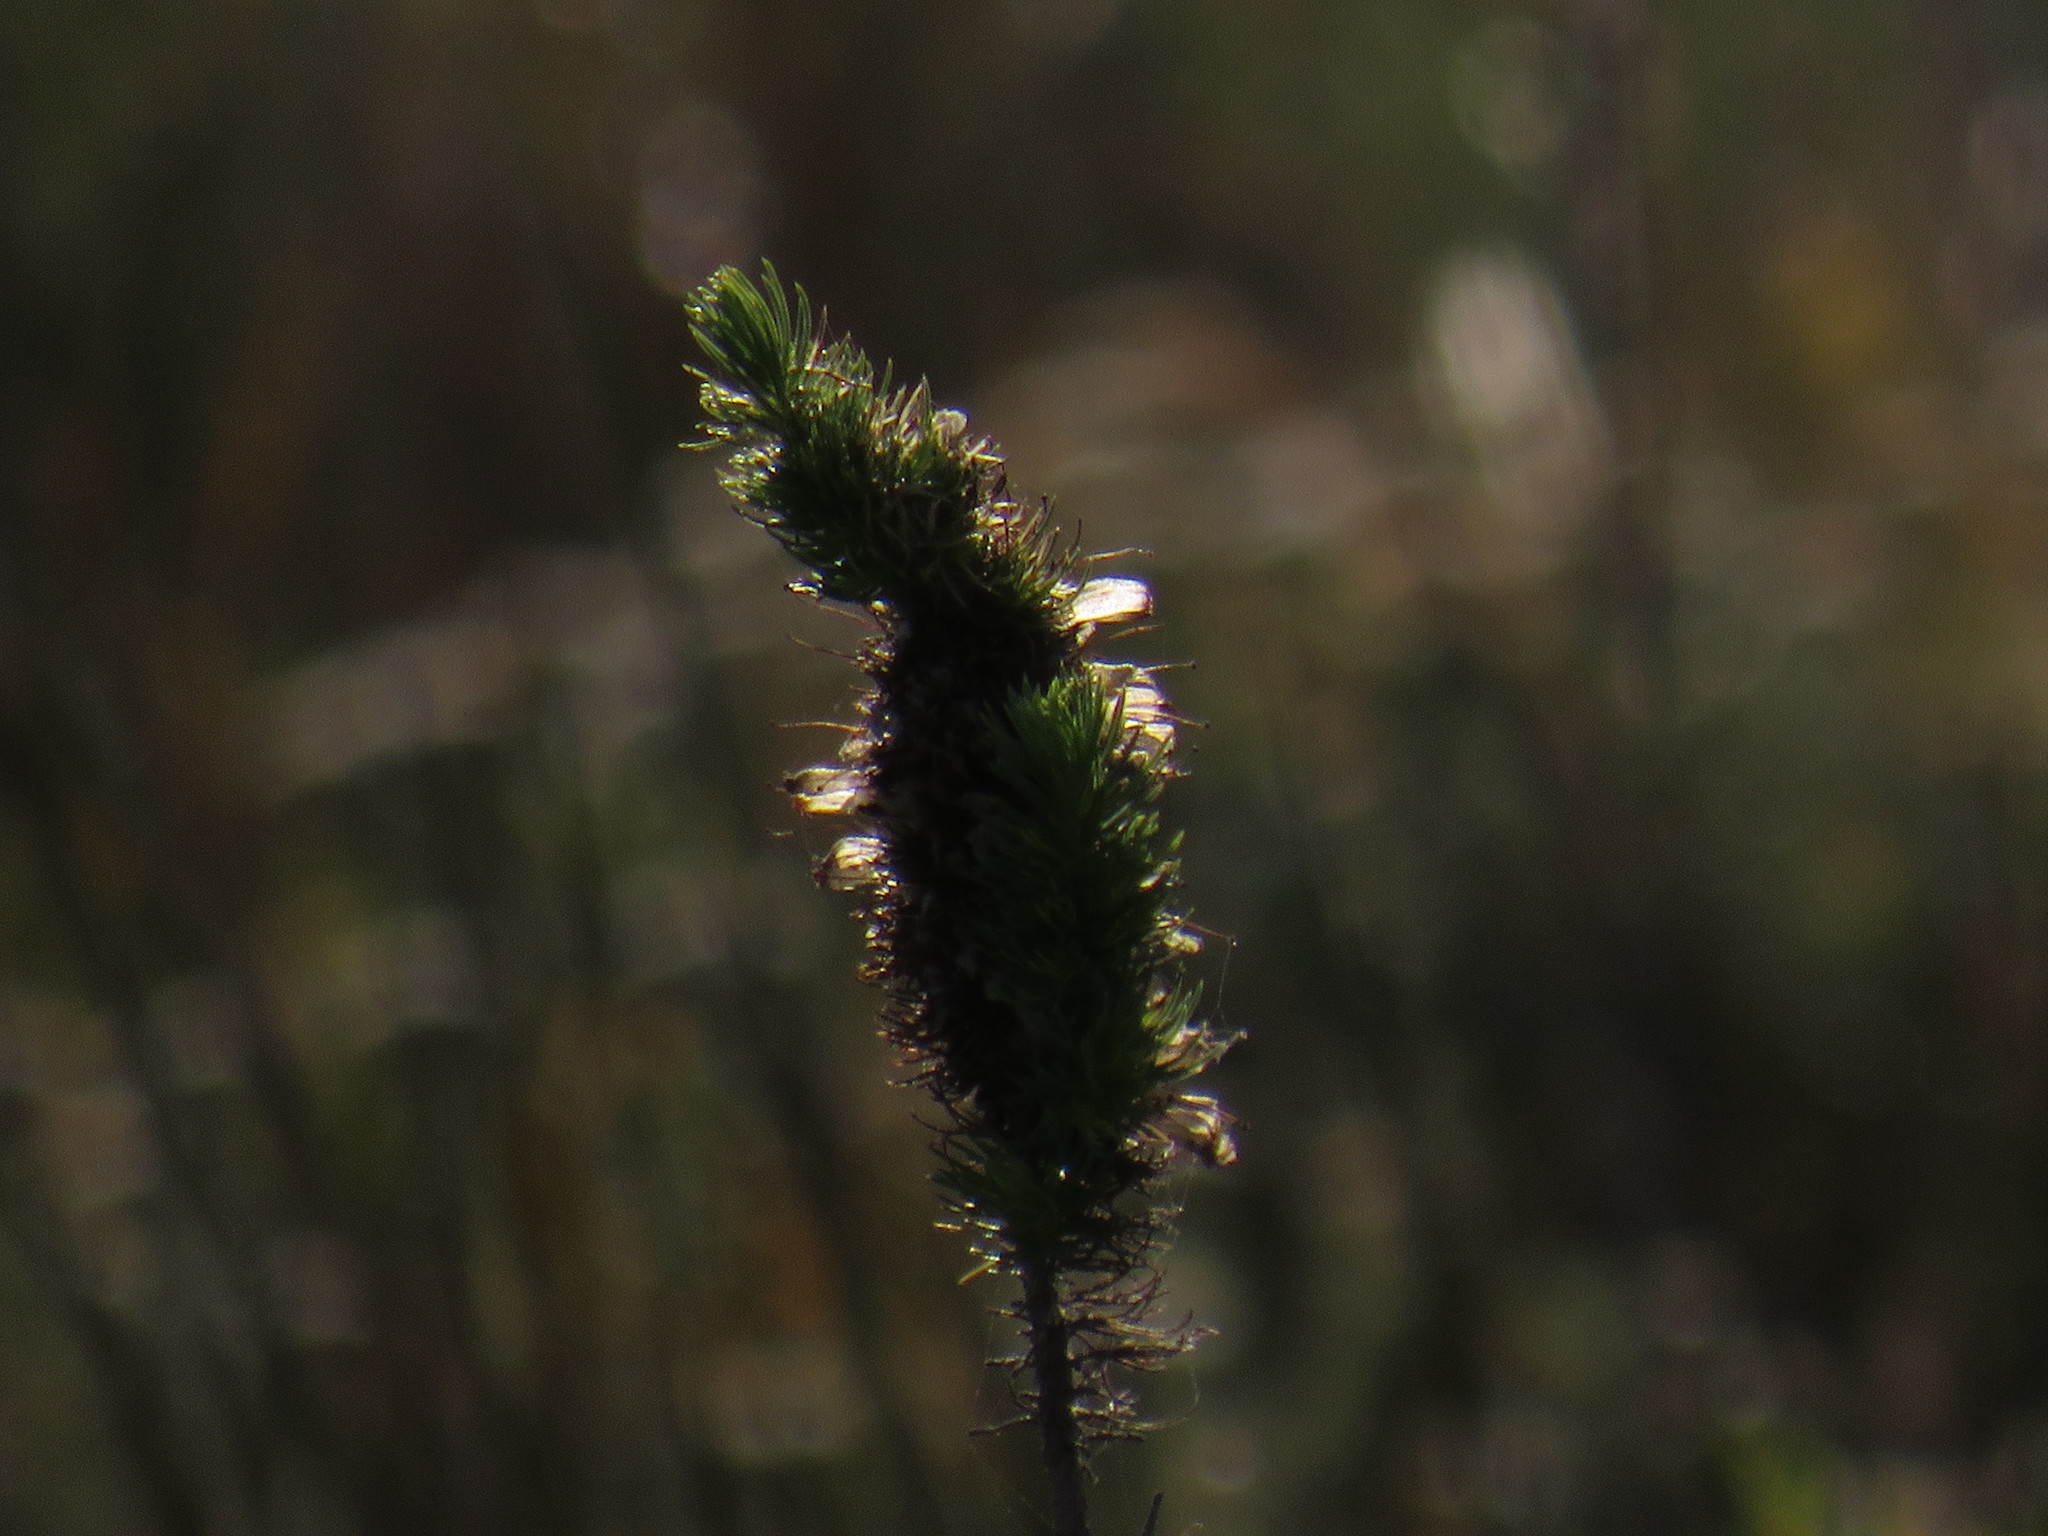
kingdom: Plantae
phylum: Tracheophyta
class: Magnoliopsida
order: Ericales
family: Ericaceae
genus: Erica
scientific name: Erica patersonia
